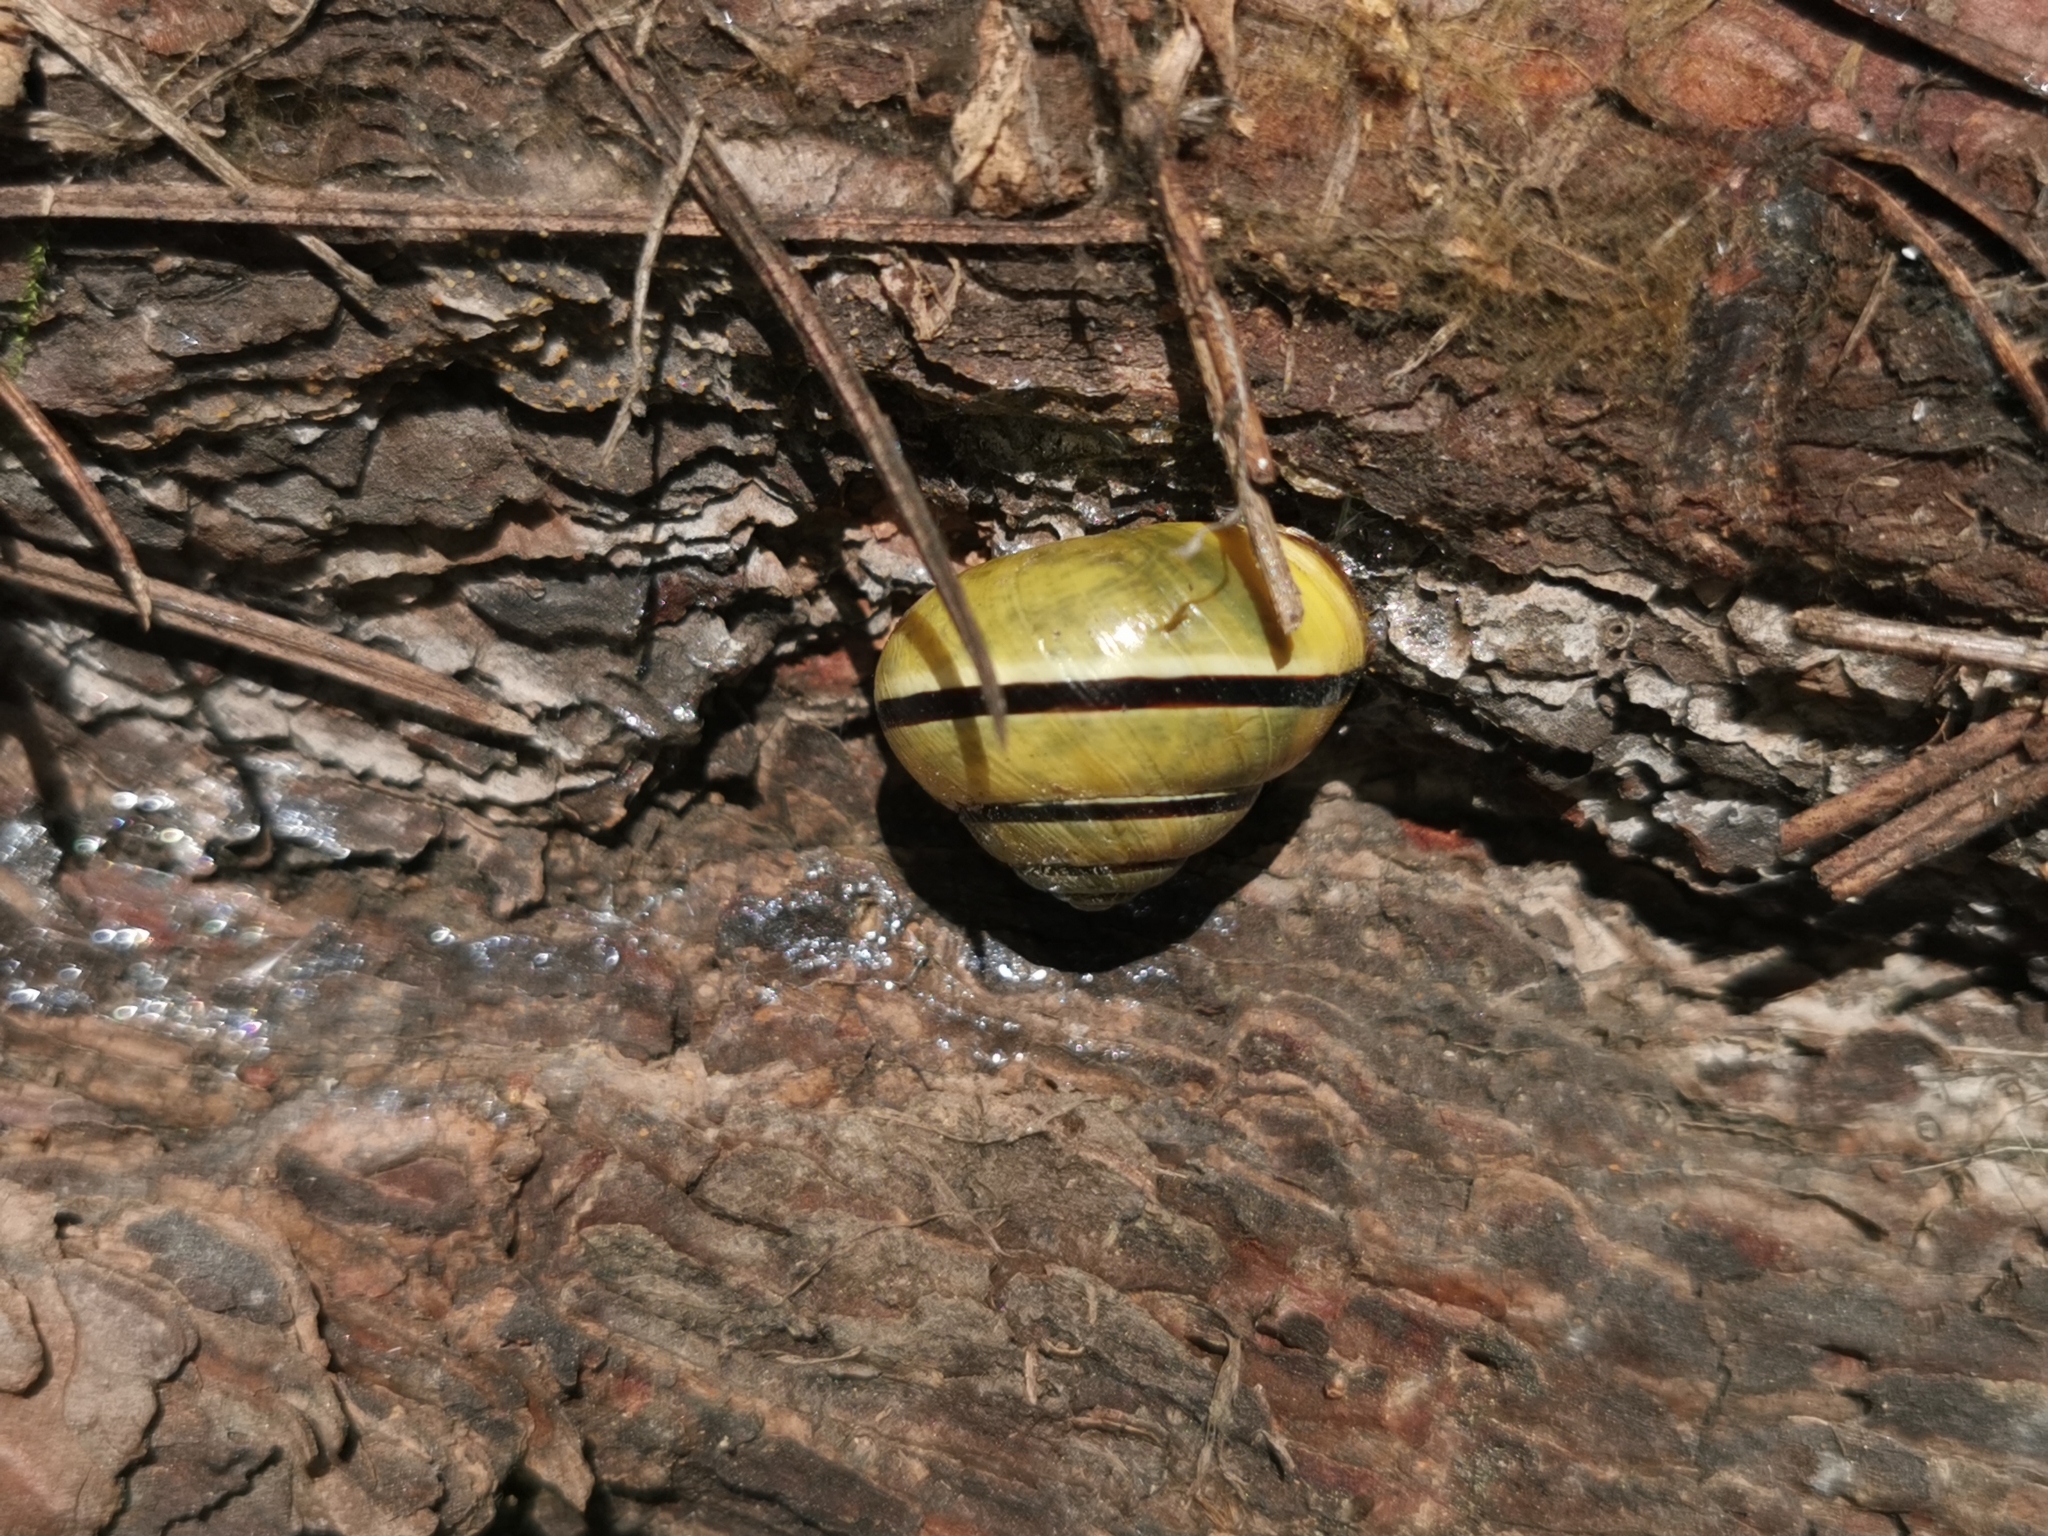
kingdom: Animalia
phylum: Mollusca
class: Gastropoda
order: Stylommatophora
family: Helicidae
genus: Cepaea
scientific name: Cepaea nemoralis
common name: Grovesnail
